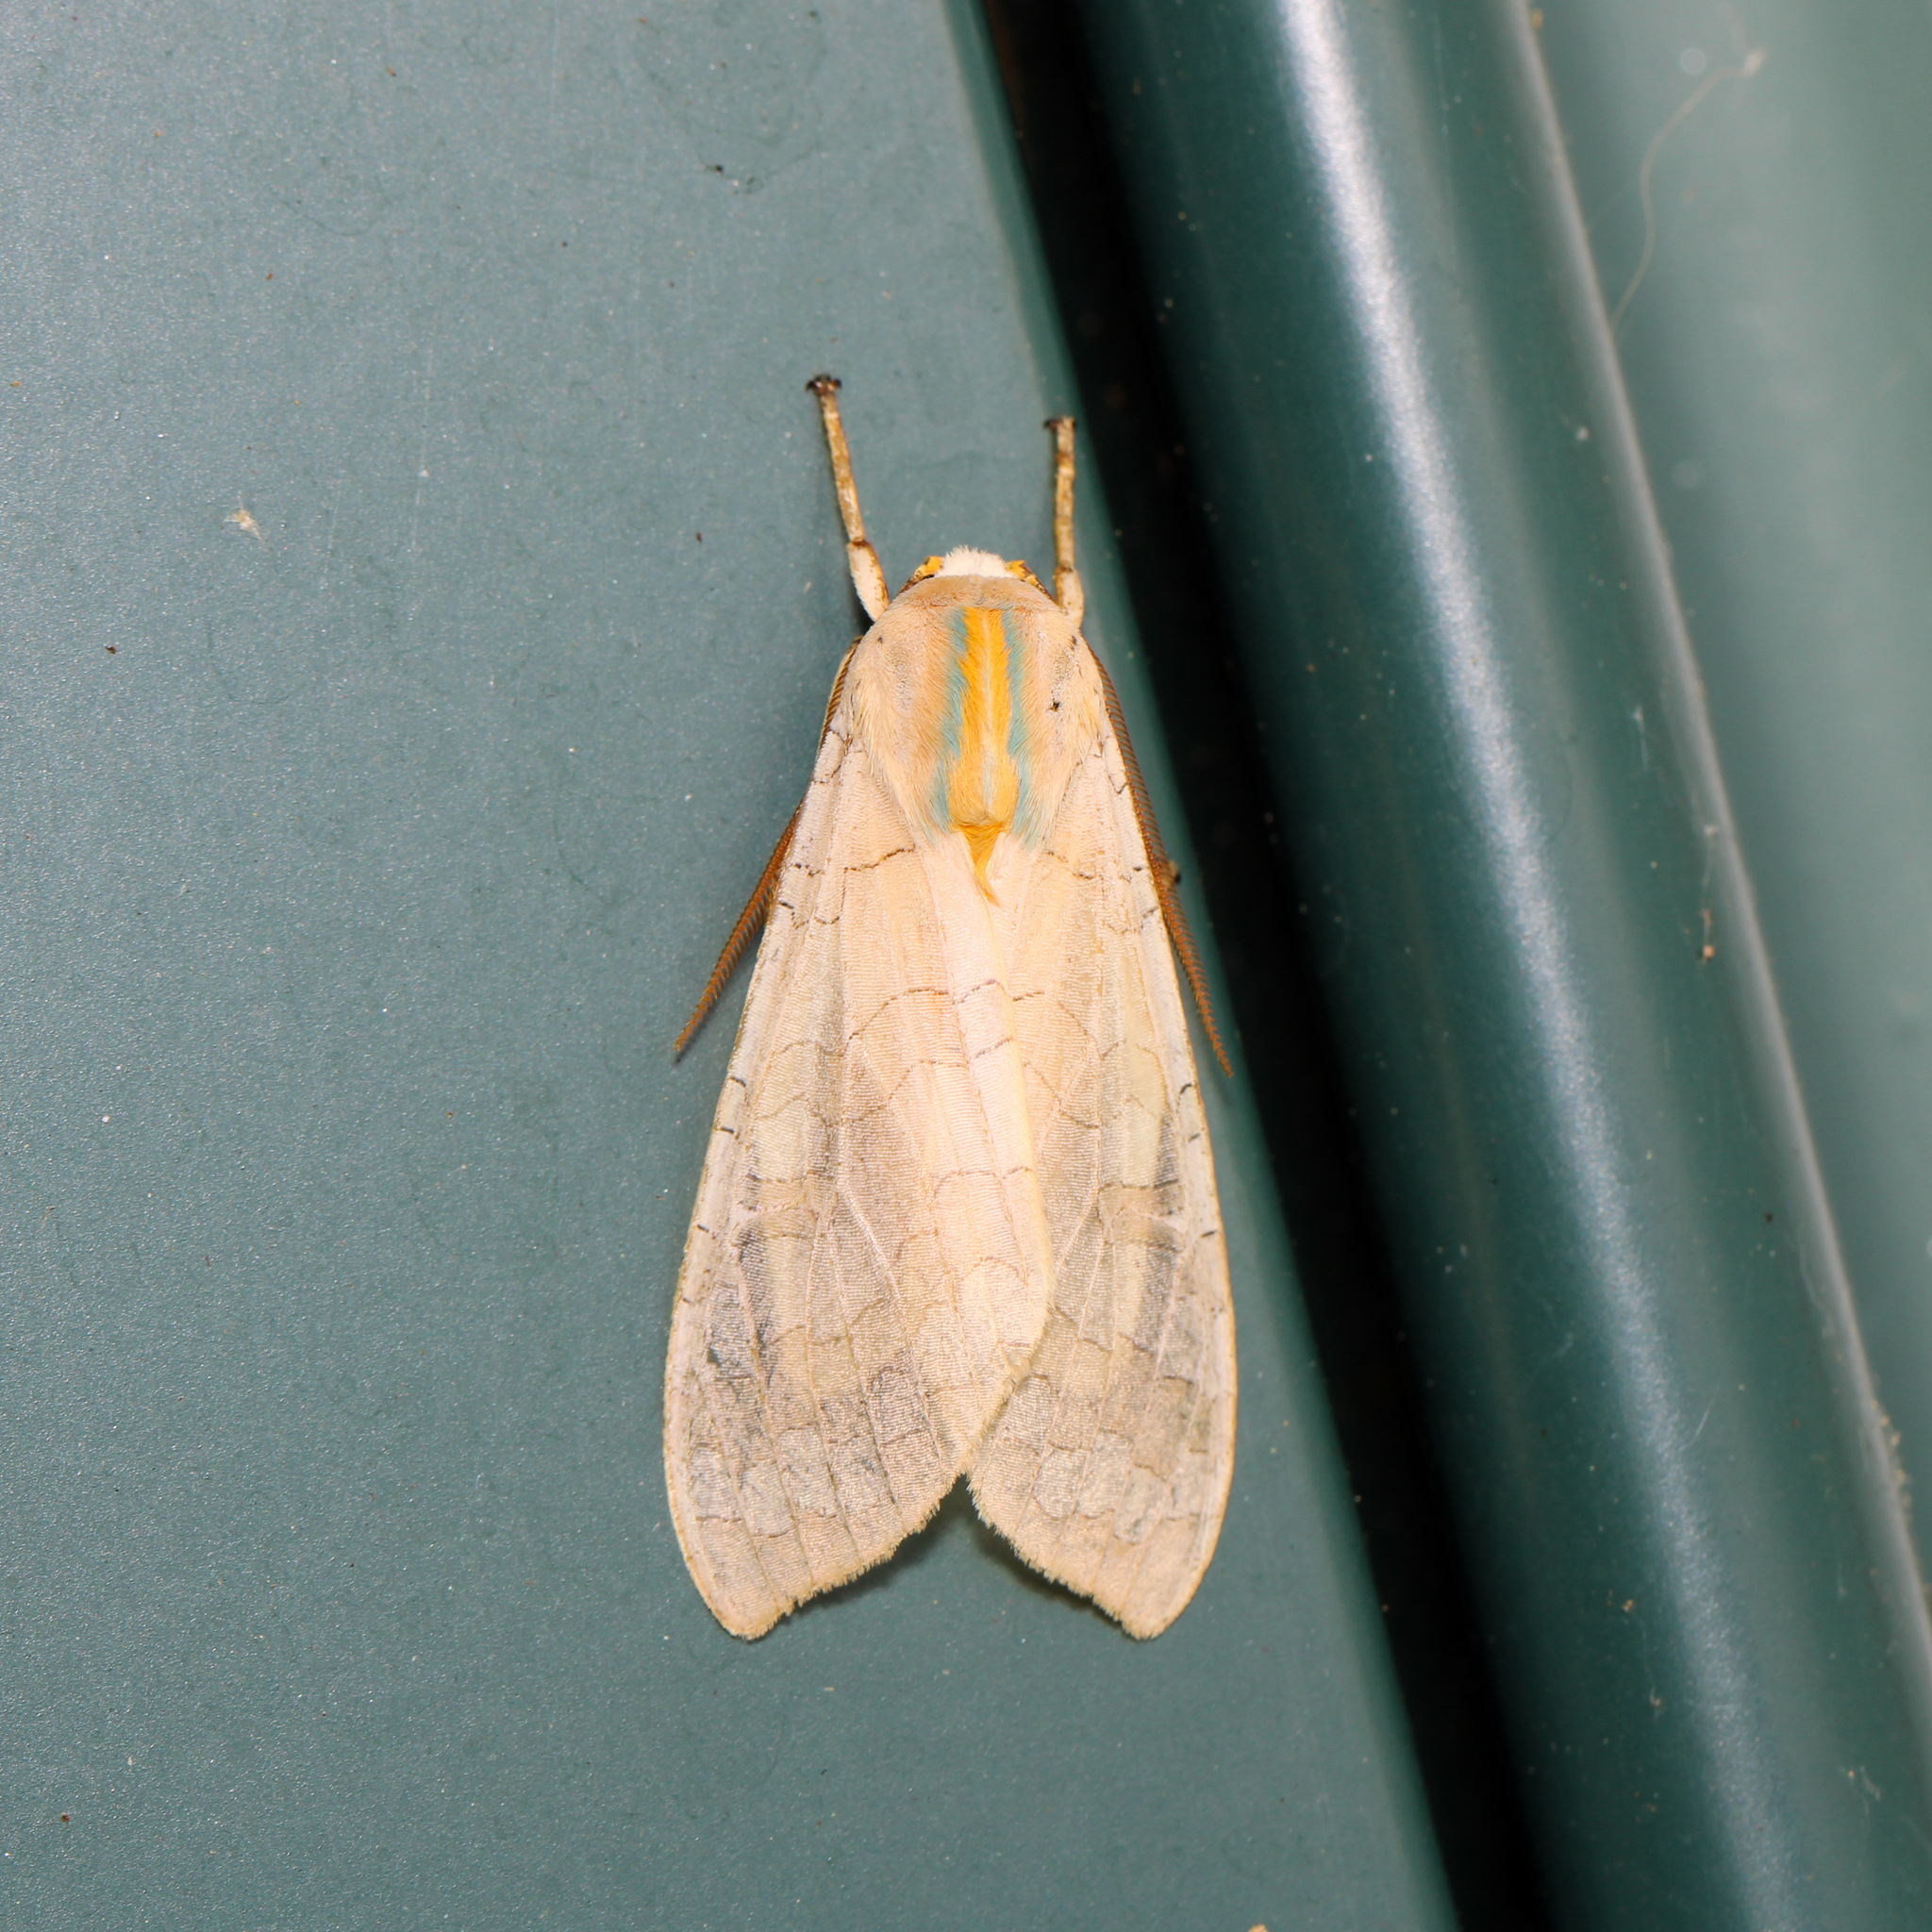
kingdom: Animalia
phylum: Arthropoda
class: Insecta
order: Lepidoptera
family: Erebidae
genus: Halysidota
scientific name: Halysidota
